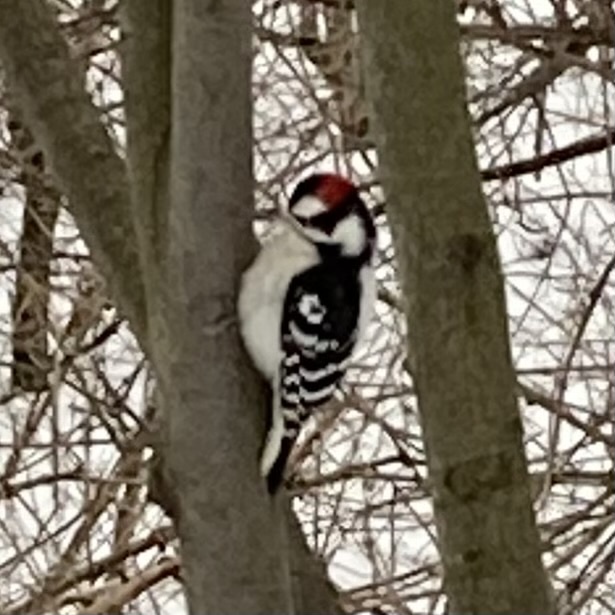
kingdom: Animalia
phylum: Chordata
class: Aves
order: Piciformes
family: Picidae
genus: Dryobates
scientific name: Dryobates pubescens
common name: Downy woodpecker
